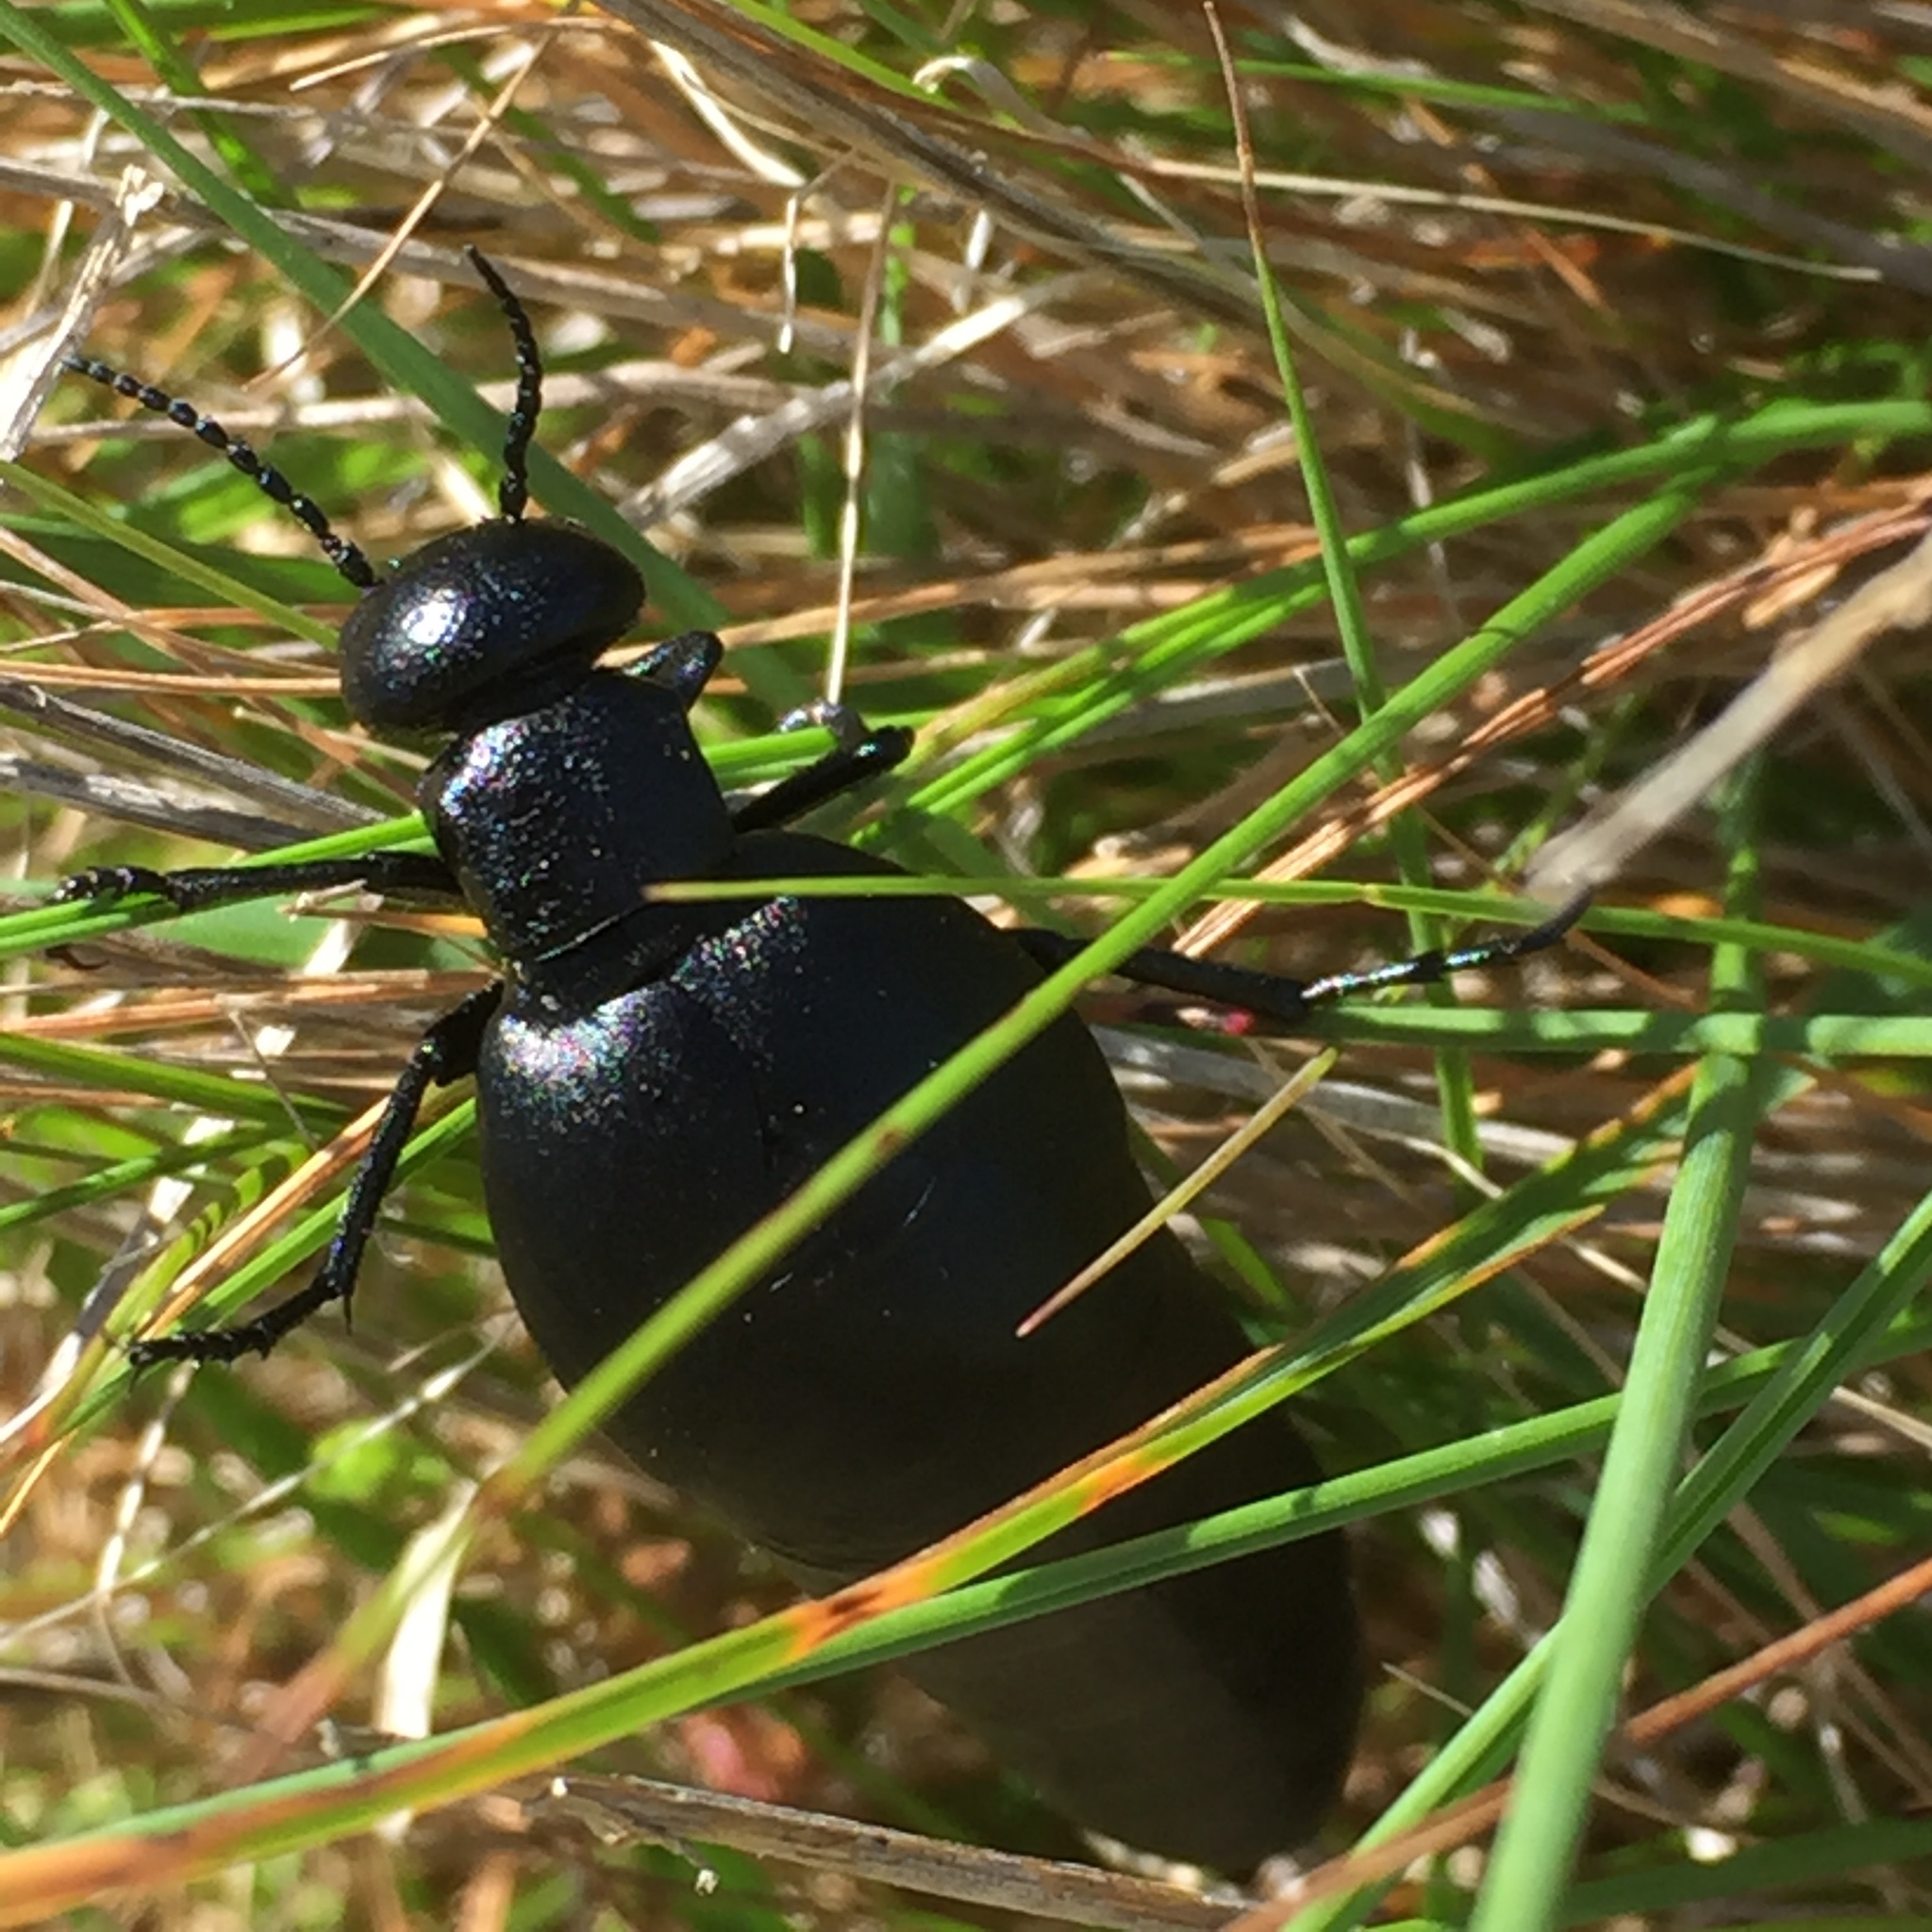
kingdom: Animalia
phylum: Arthropoda
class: Insecta
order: Coleoptera
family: Meloidae
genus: Berberomeloe
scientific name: Berberomeloe castuo
